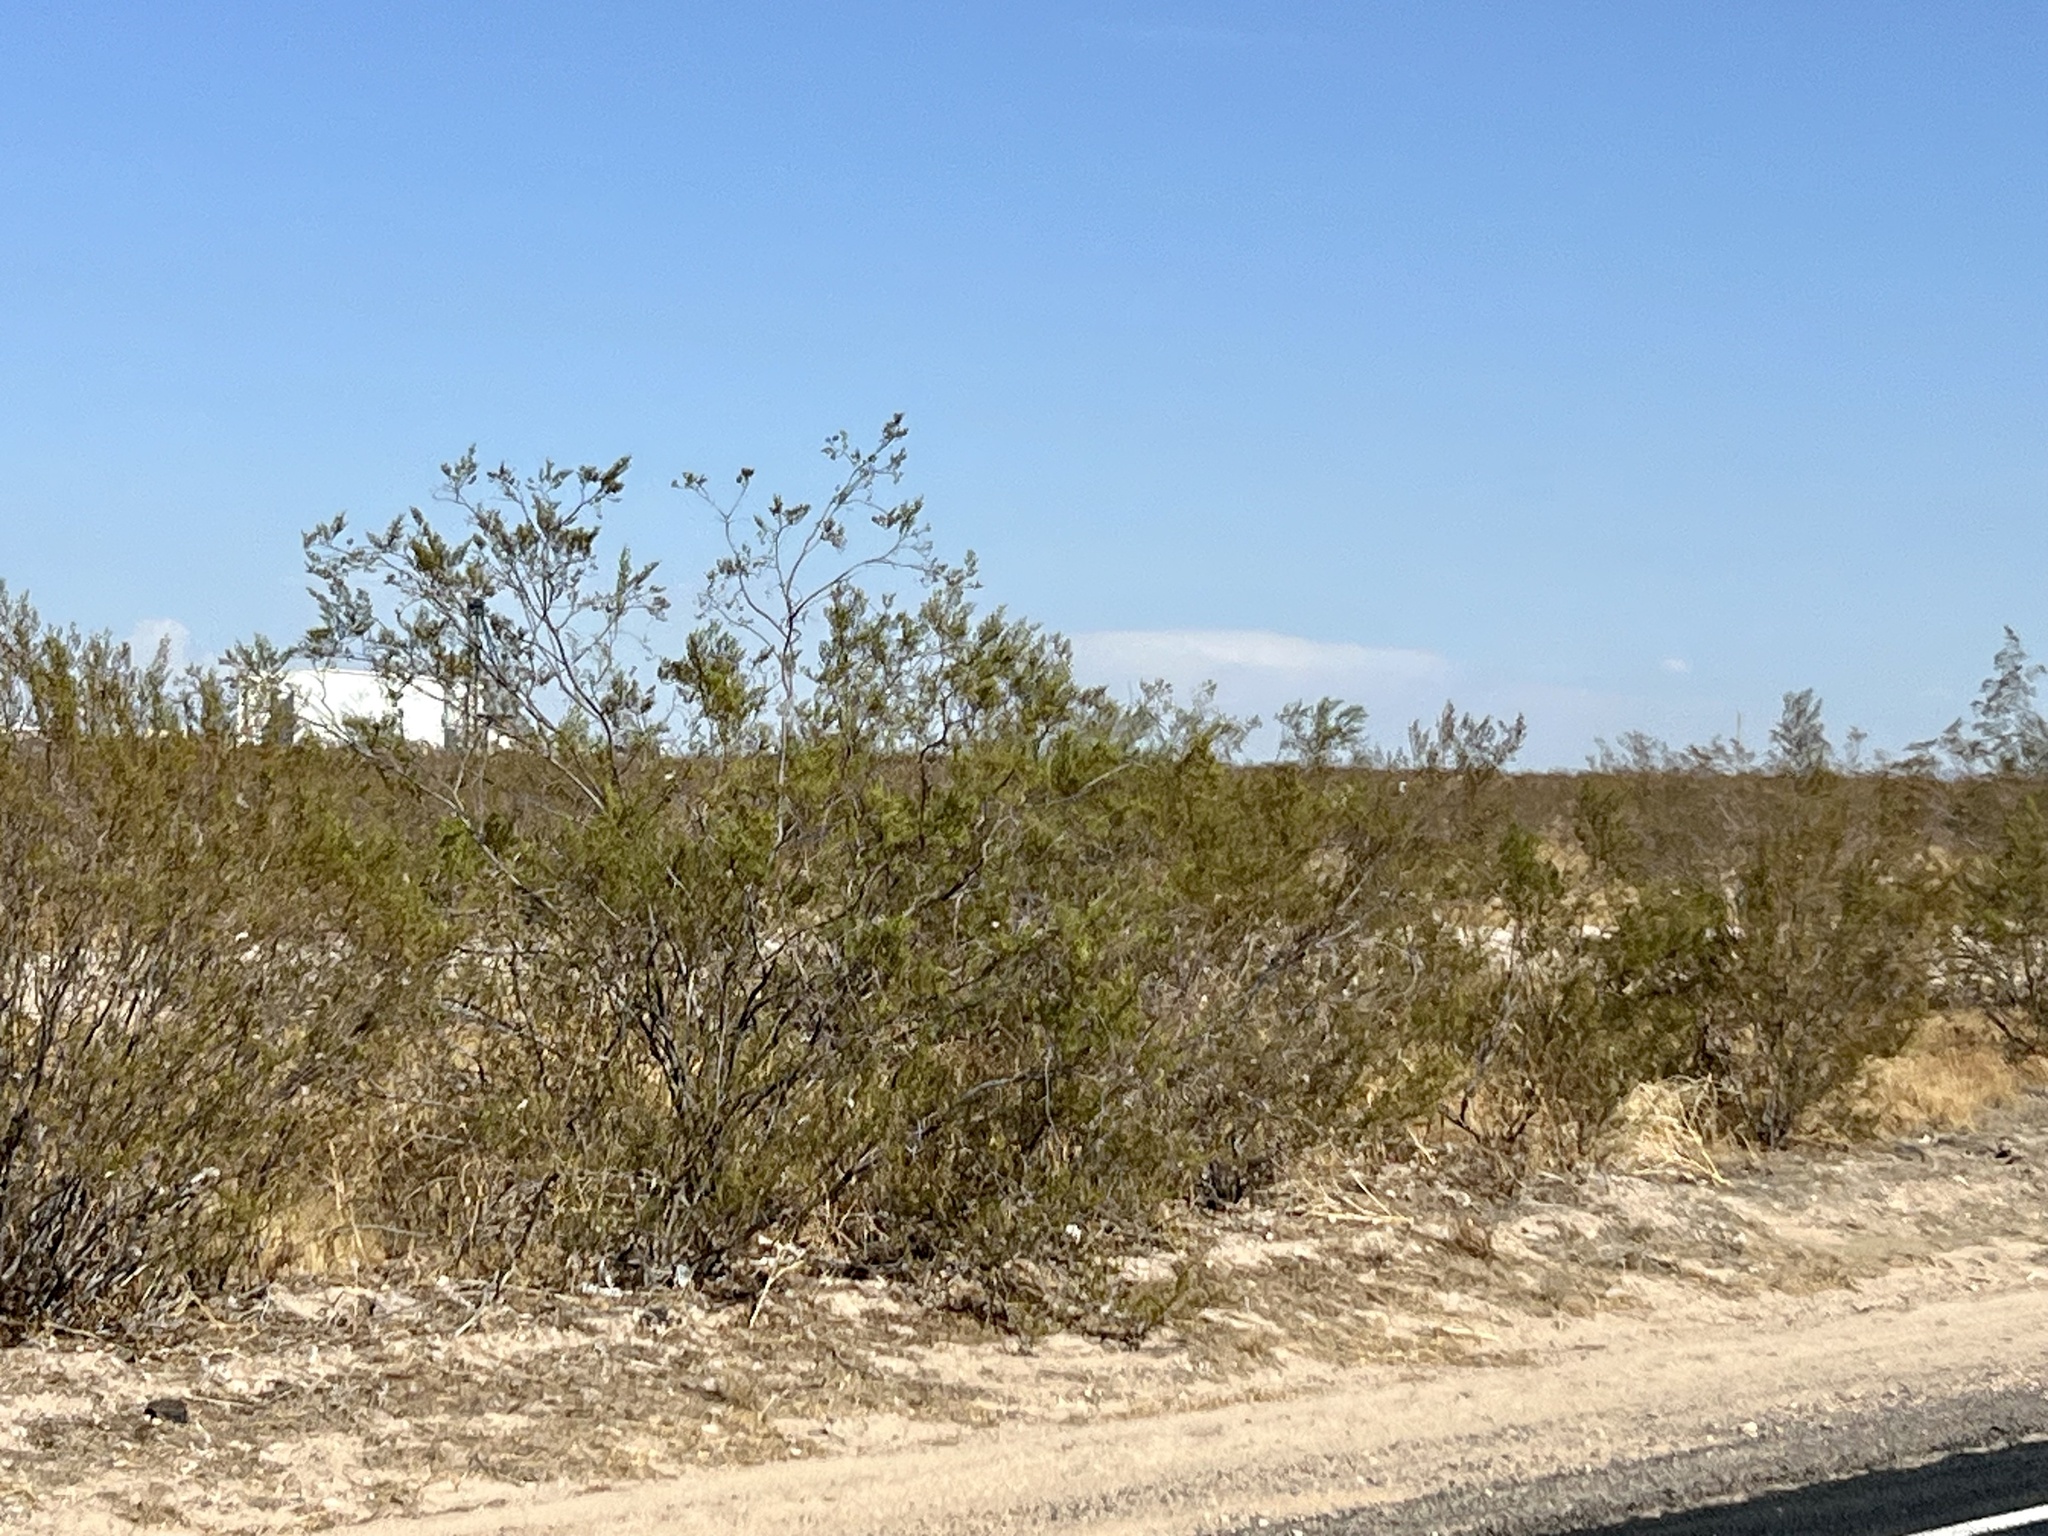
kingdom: Plantae
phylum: Tracheophyta
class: Magnoliopsida
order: Zygophyllales
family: Zygophyllaceae
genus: Larrea
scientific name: Larrea tridentata
